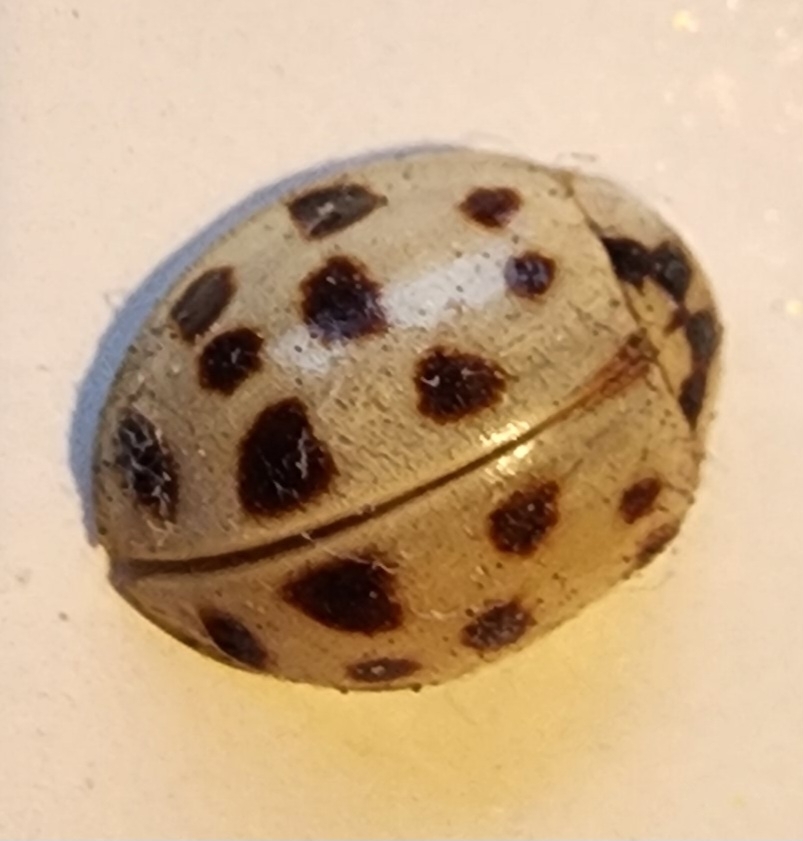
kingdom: Animalia
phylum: Arthropoda
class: Insecta
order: Coleoptera
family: Coccinellidae
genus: Harmonia
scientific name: Harmonia axyridis
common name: Harlequin ladybird
